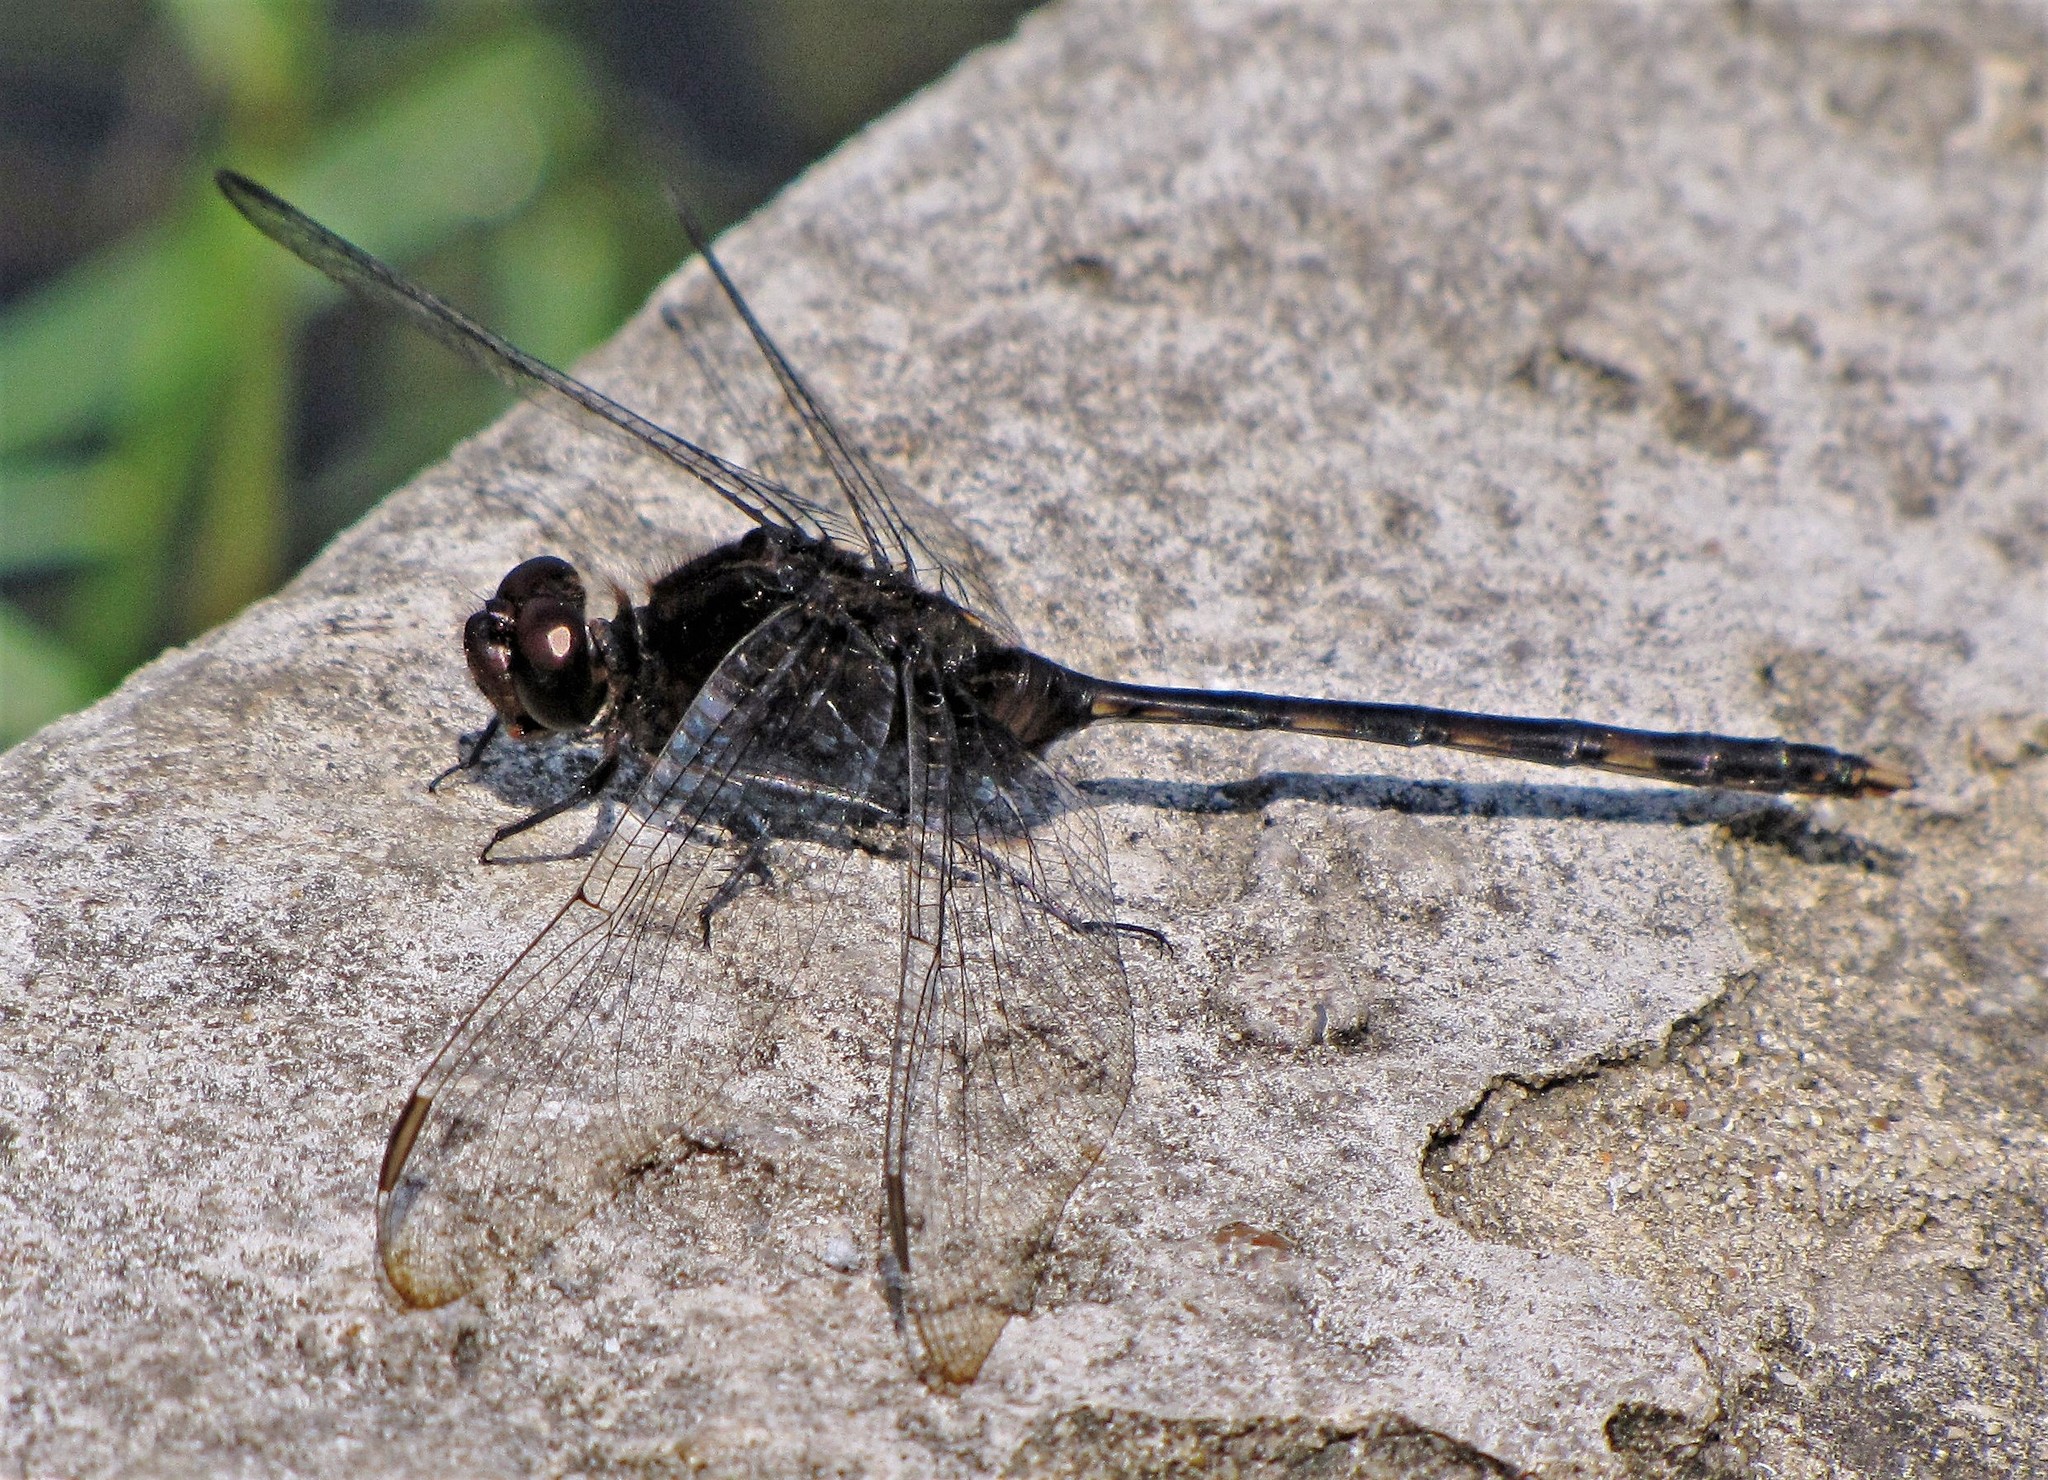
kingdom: Animalia
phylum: Arthropoda
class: Insecta
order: Odonata
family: Libellulidae
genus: Erythemis
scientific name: Erythemis plebeja
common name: Pin-tailed pondhawk
